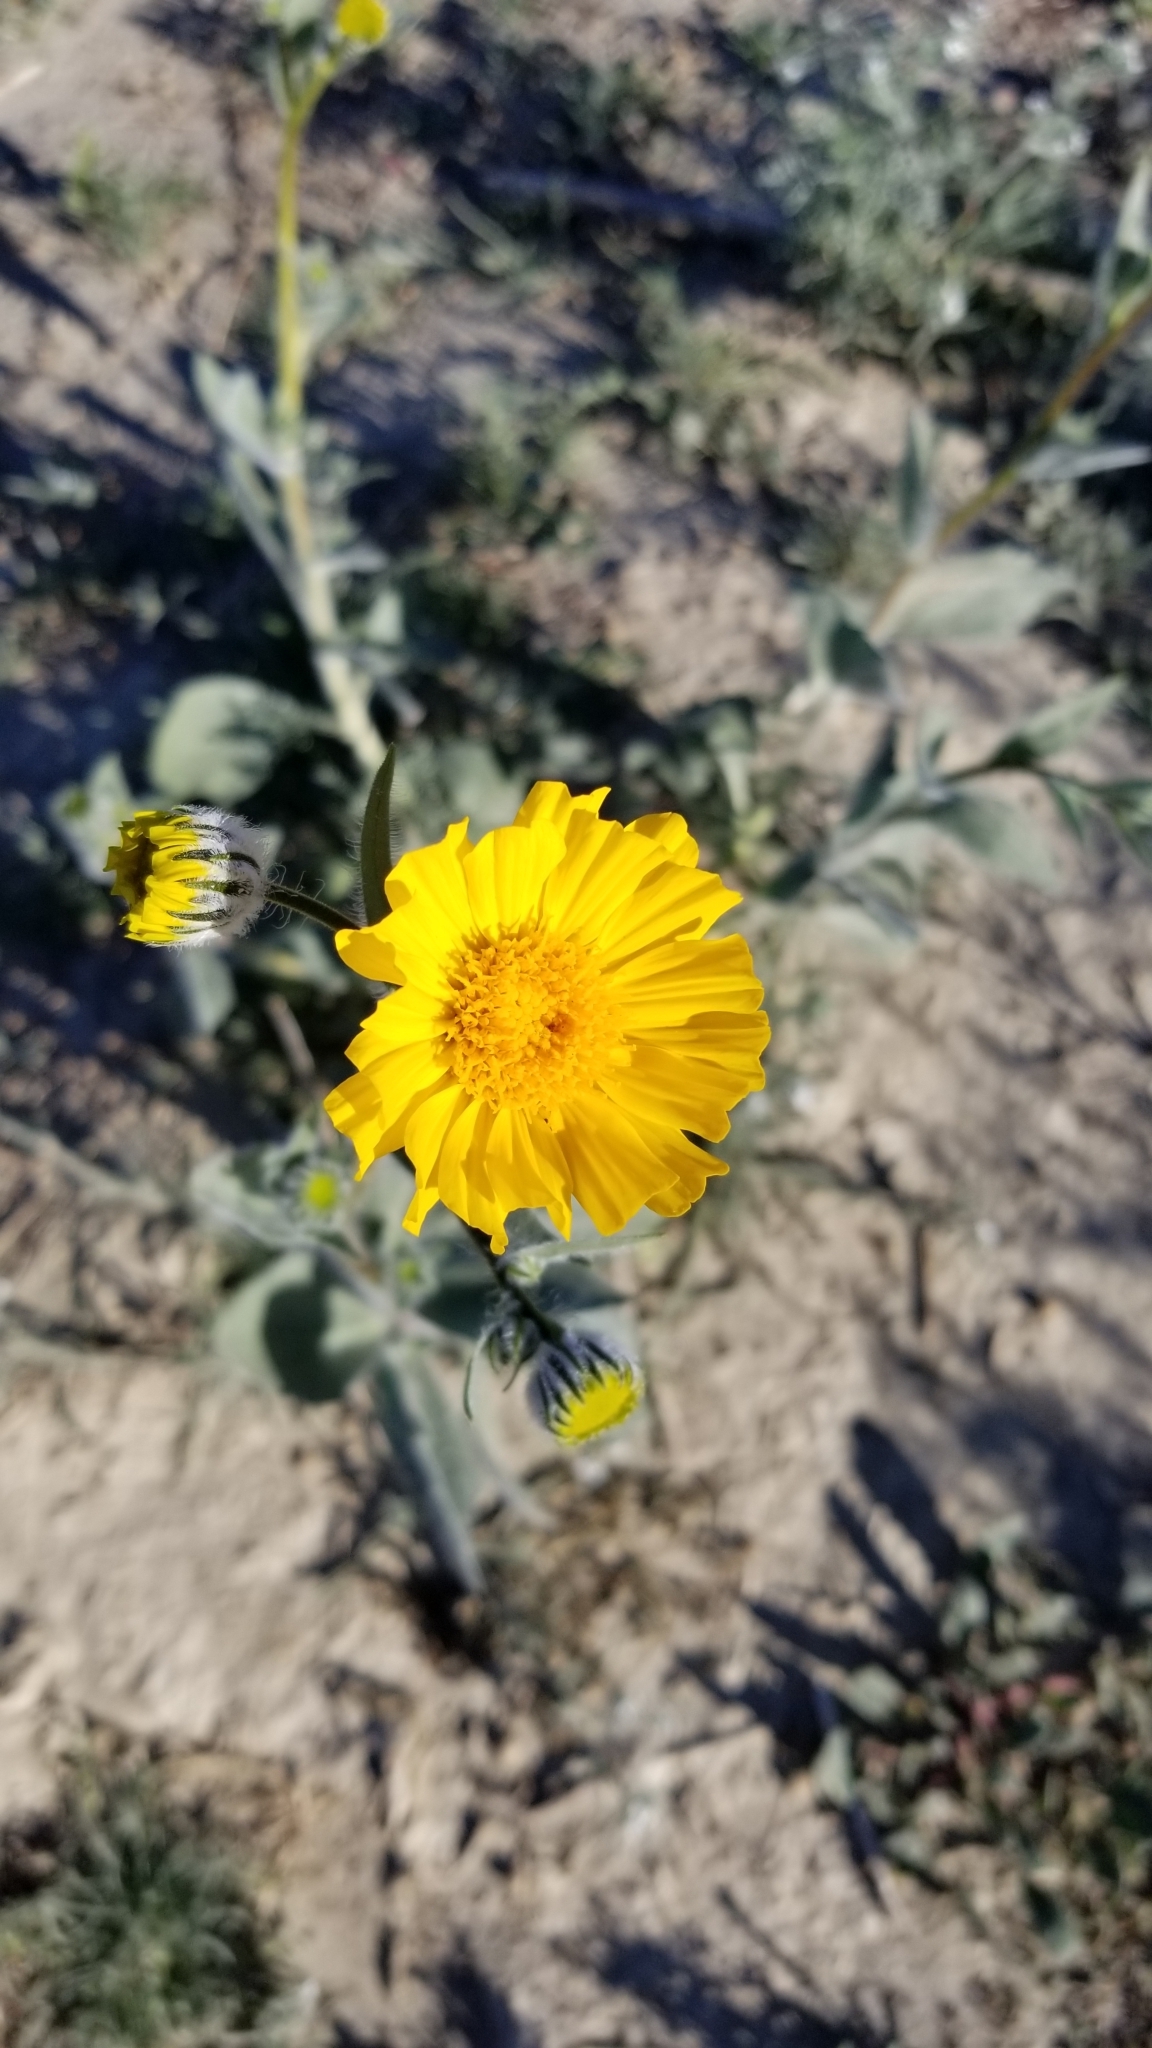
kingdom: Plantae
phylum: Tracheophyta
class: Magnoliopsida
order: Asterales
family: Asteraceae
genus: Geraea
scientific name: Geraea canescens
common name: Desert-gold
